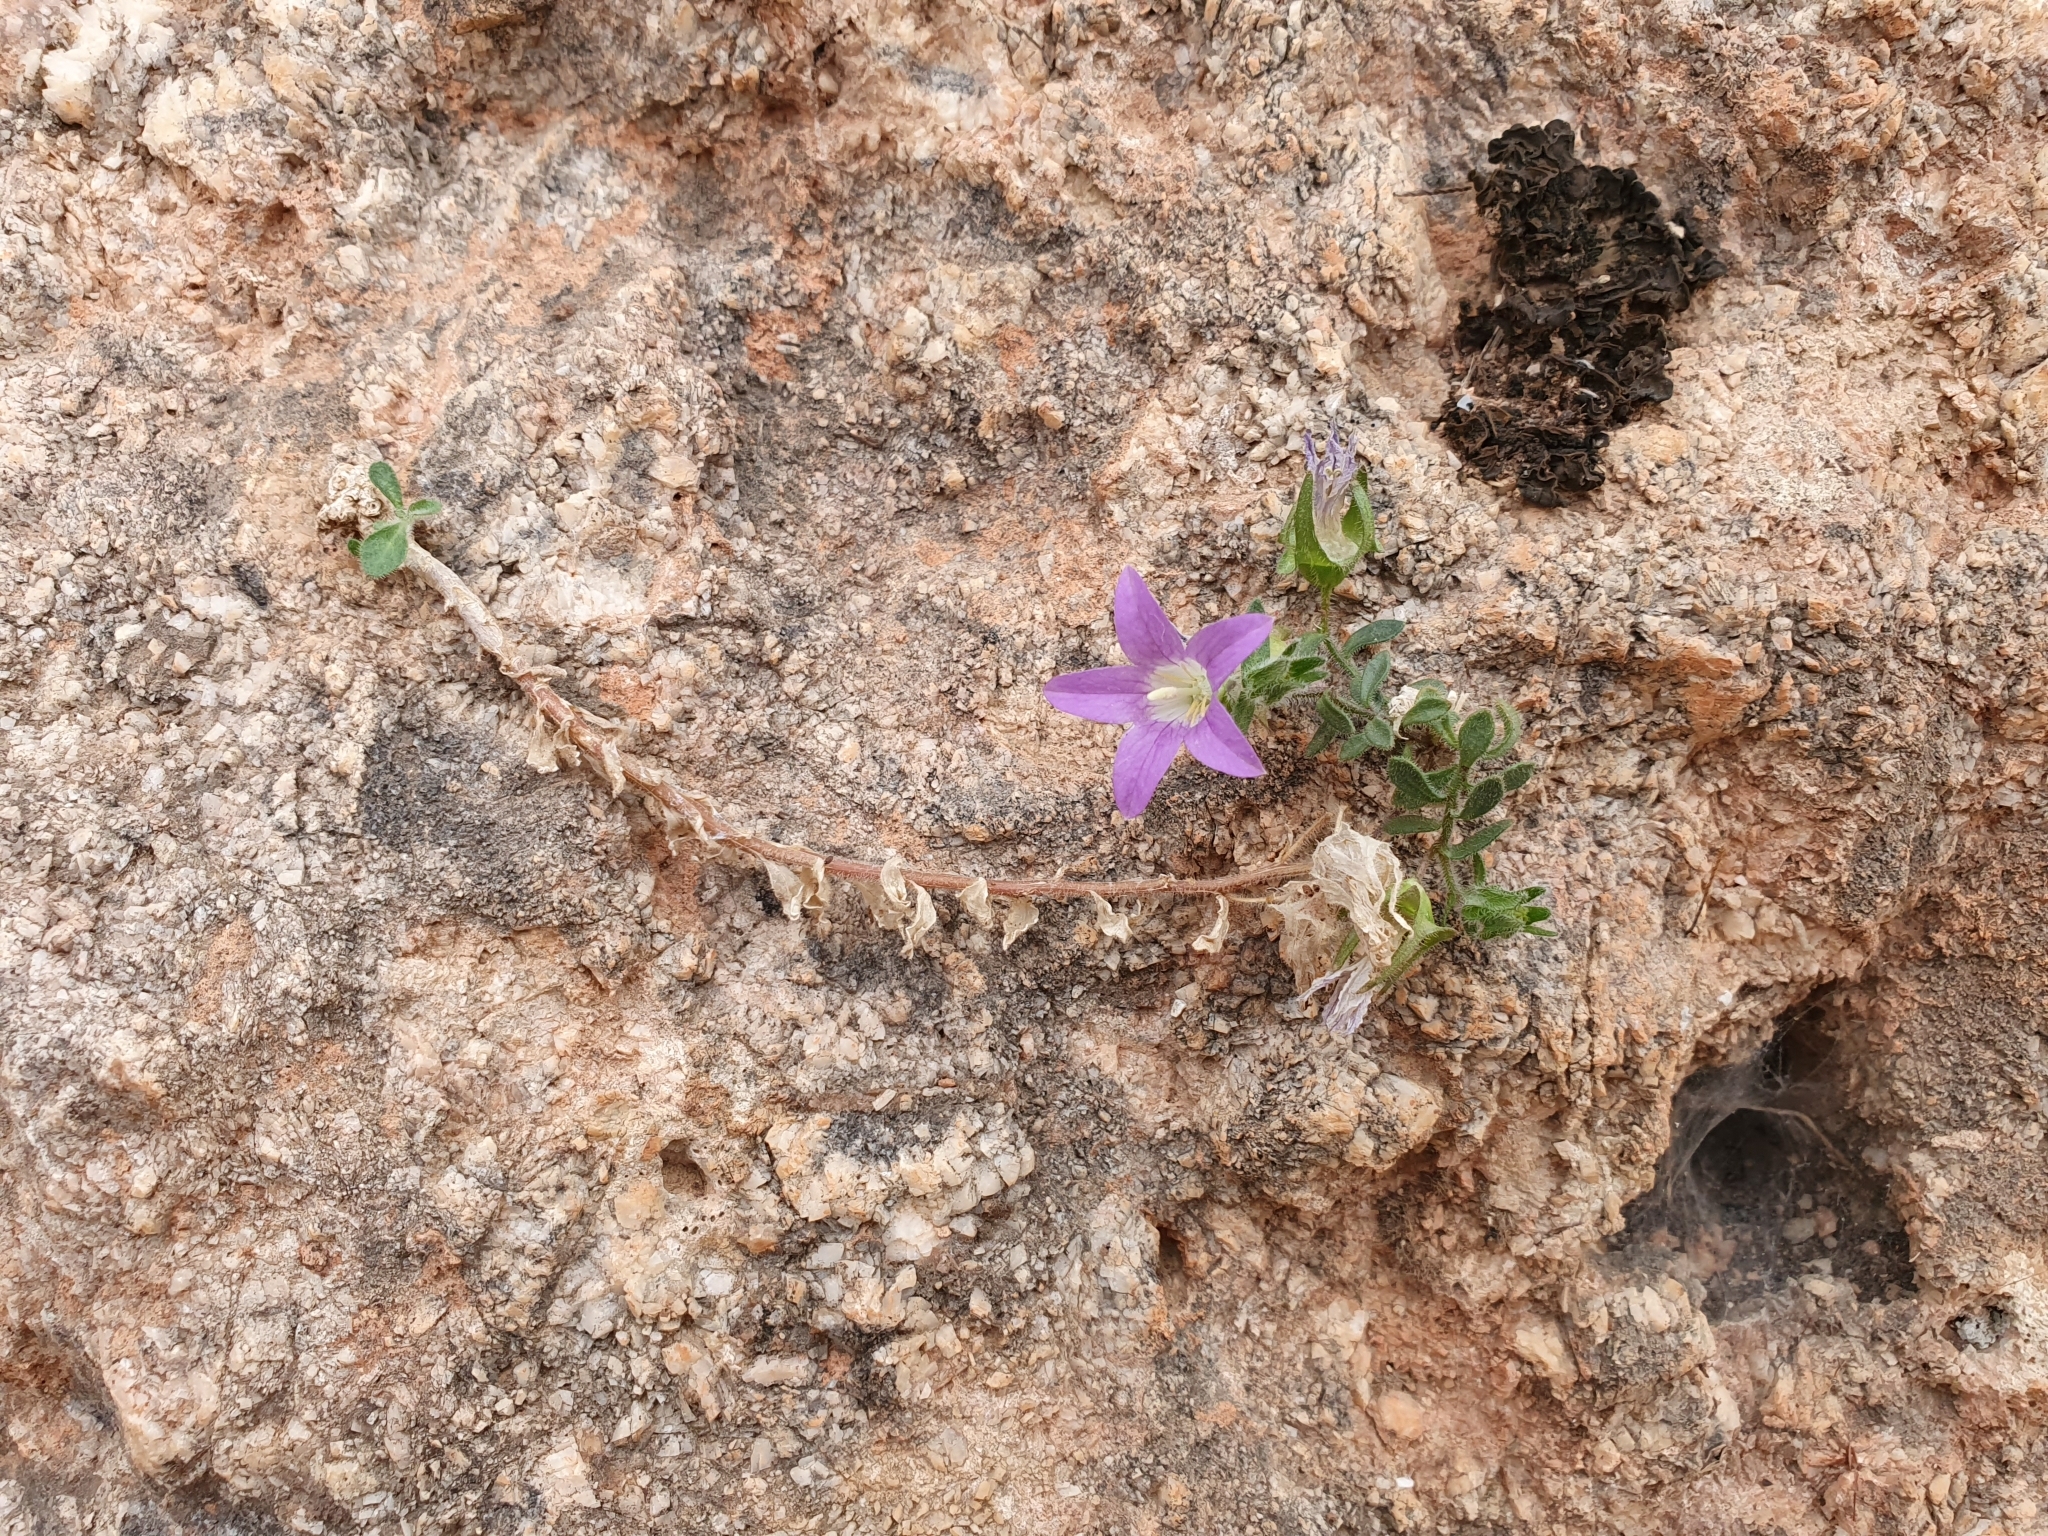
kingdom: Plantae
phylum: Tracheophyta
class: Magnoliopsida
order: Asterales
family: Campanulaceae
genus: Campanula
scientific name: Campanula numidica
